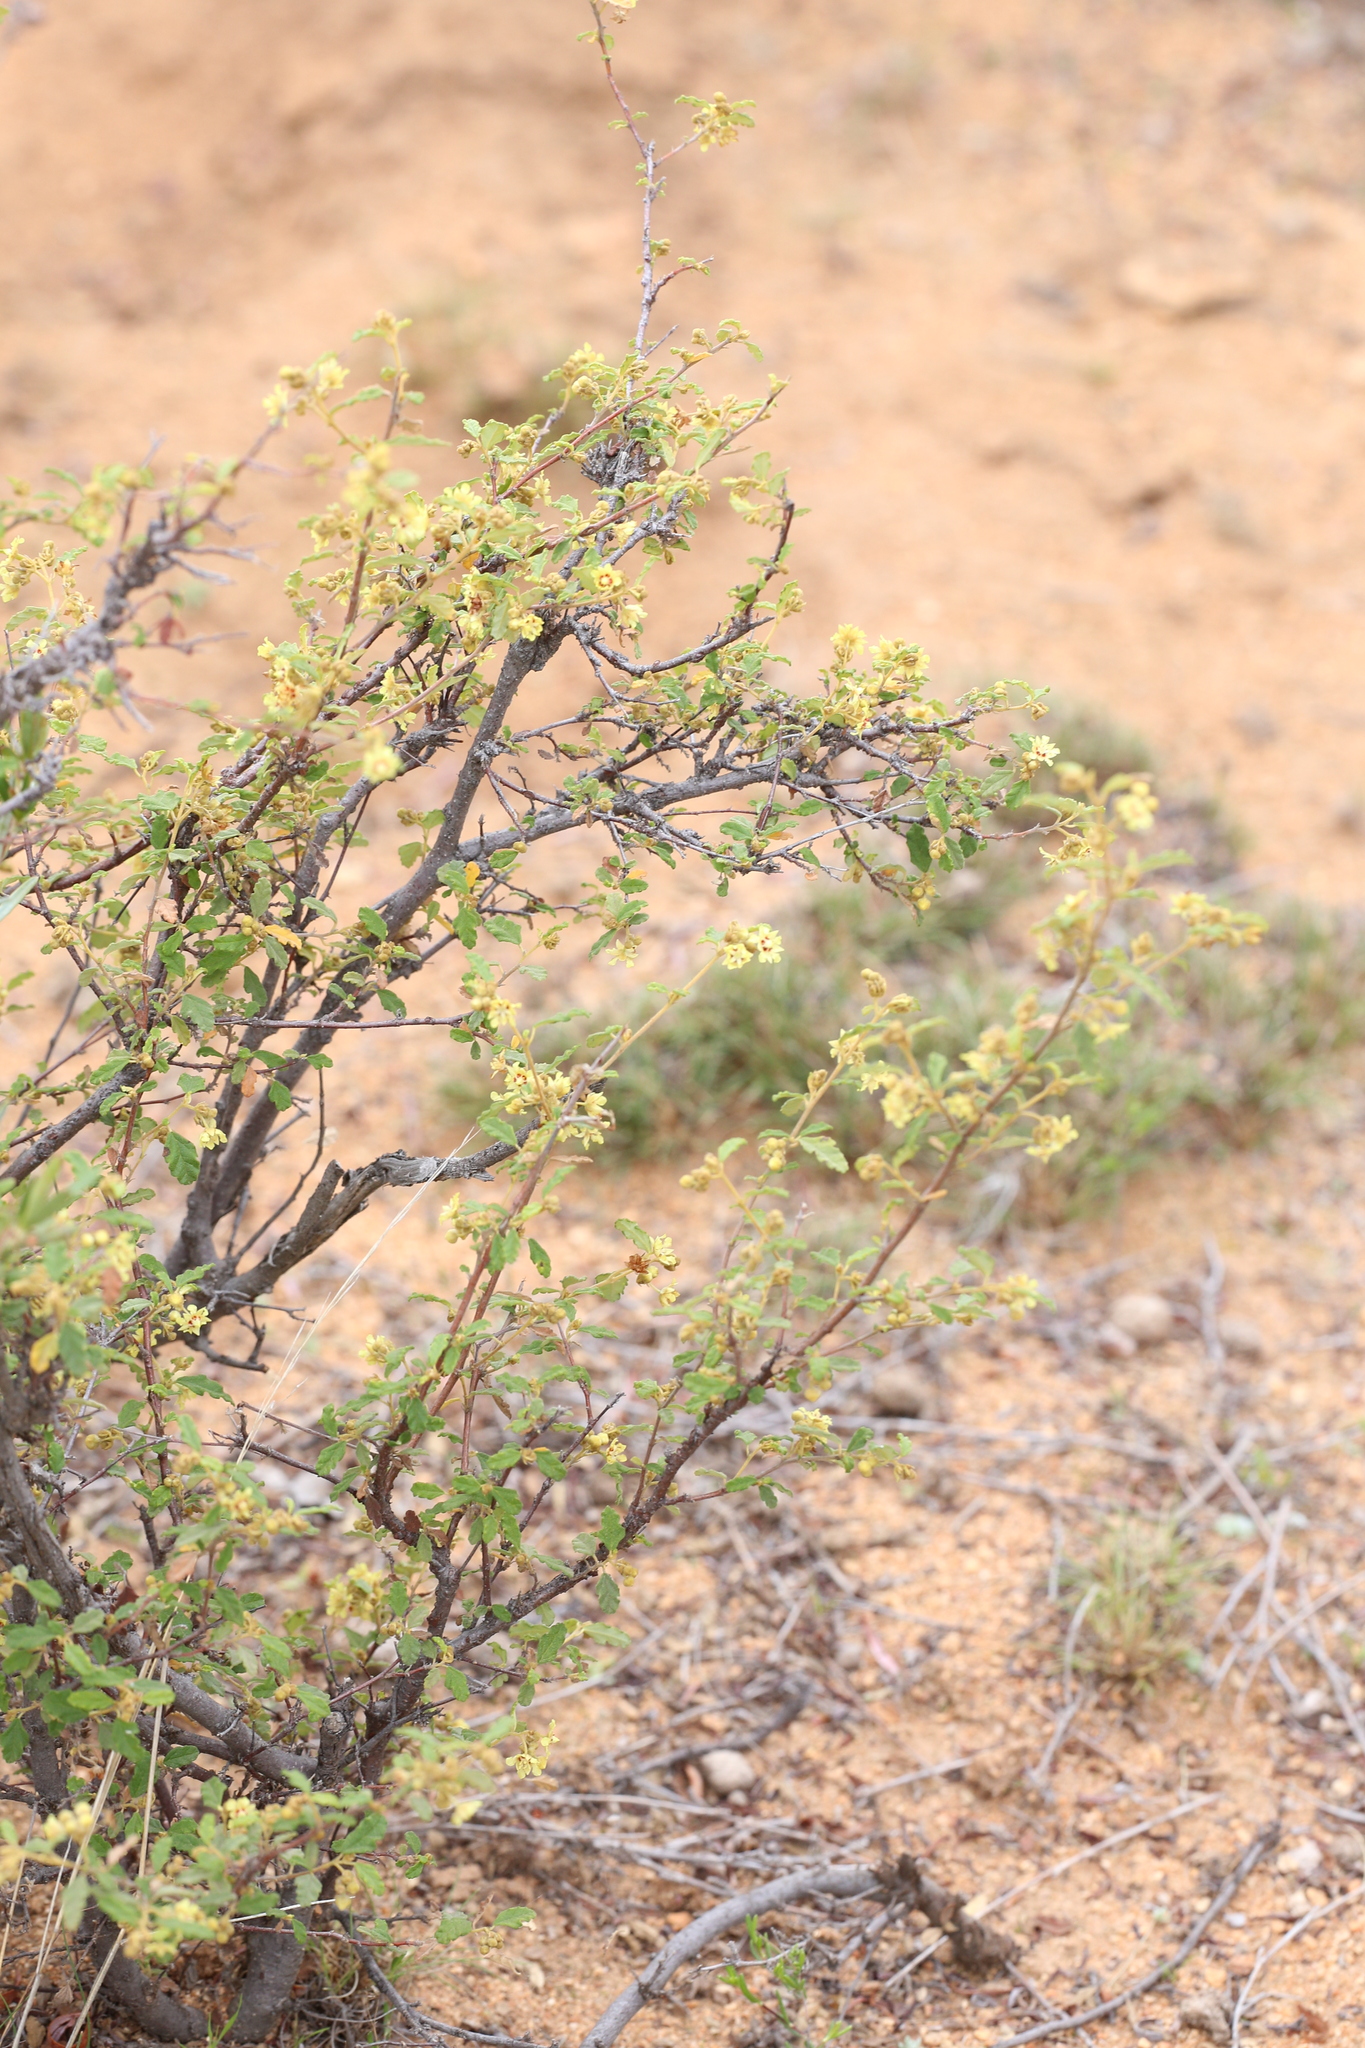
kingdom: Plantae
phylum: Tracheophyta
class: Magnoliopsida
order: Malvales
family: Malvaceae
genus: Androcalva
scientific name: Androcalva luteiflora
